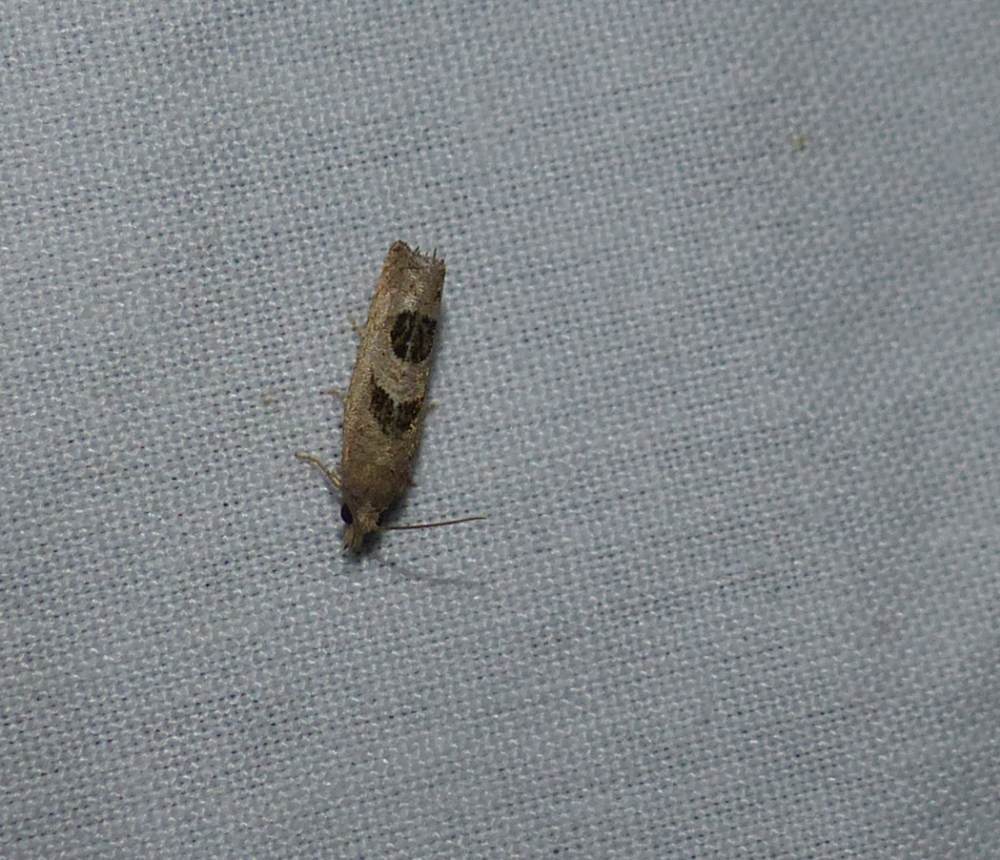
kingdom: Animalia
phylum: Arthropoda
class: Insecta
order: Lepidoptera
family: Tortricidae
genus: Eucosma
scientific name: Eucosma tomonana
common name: Aster-head eucosma moth
